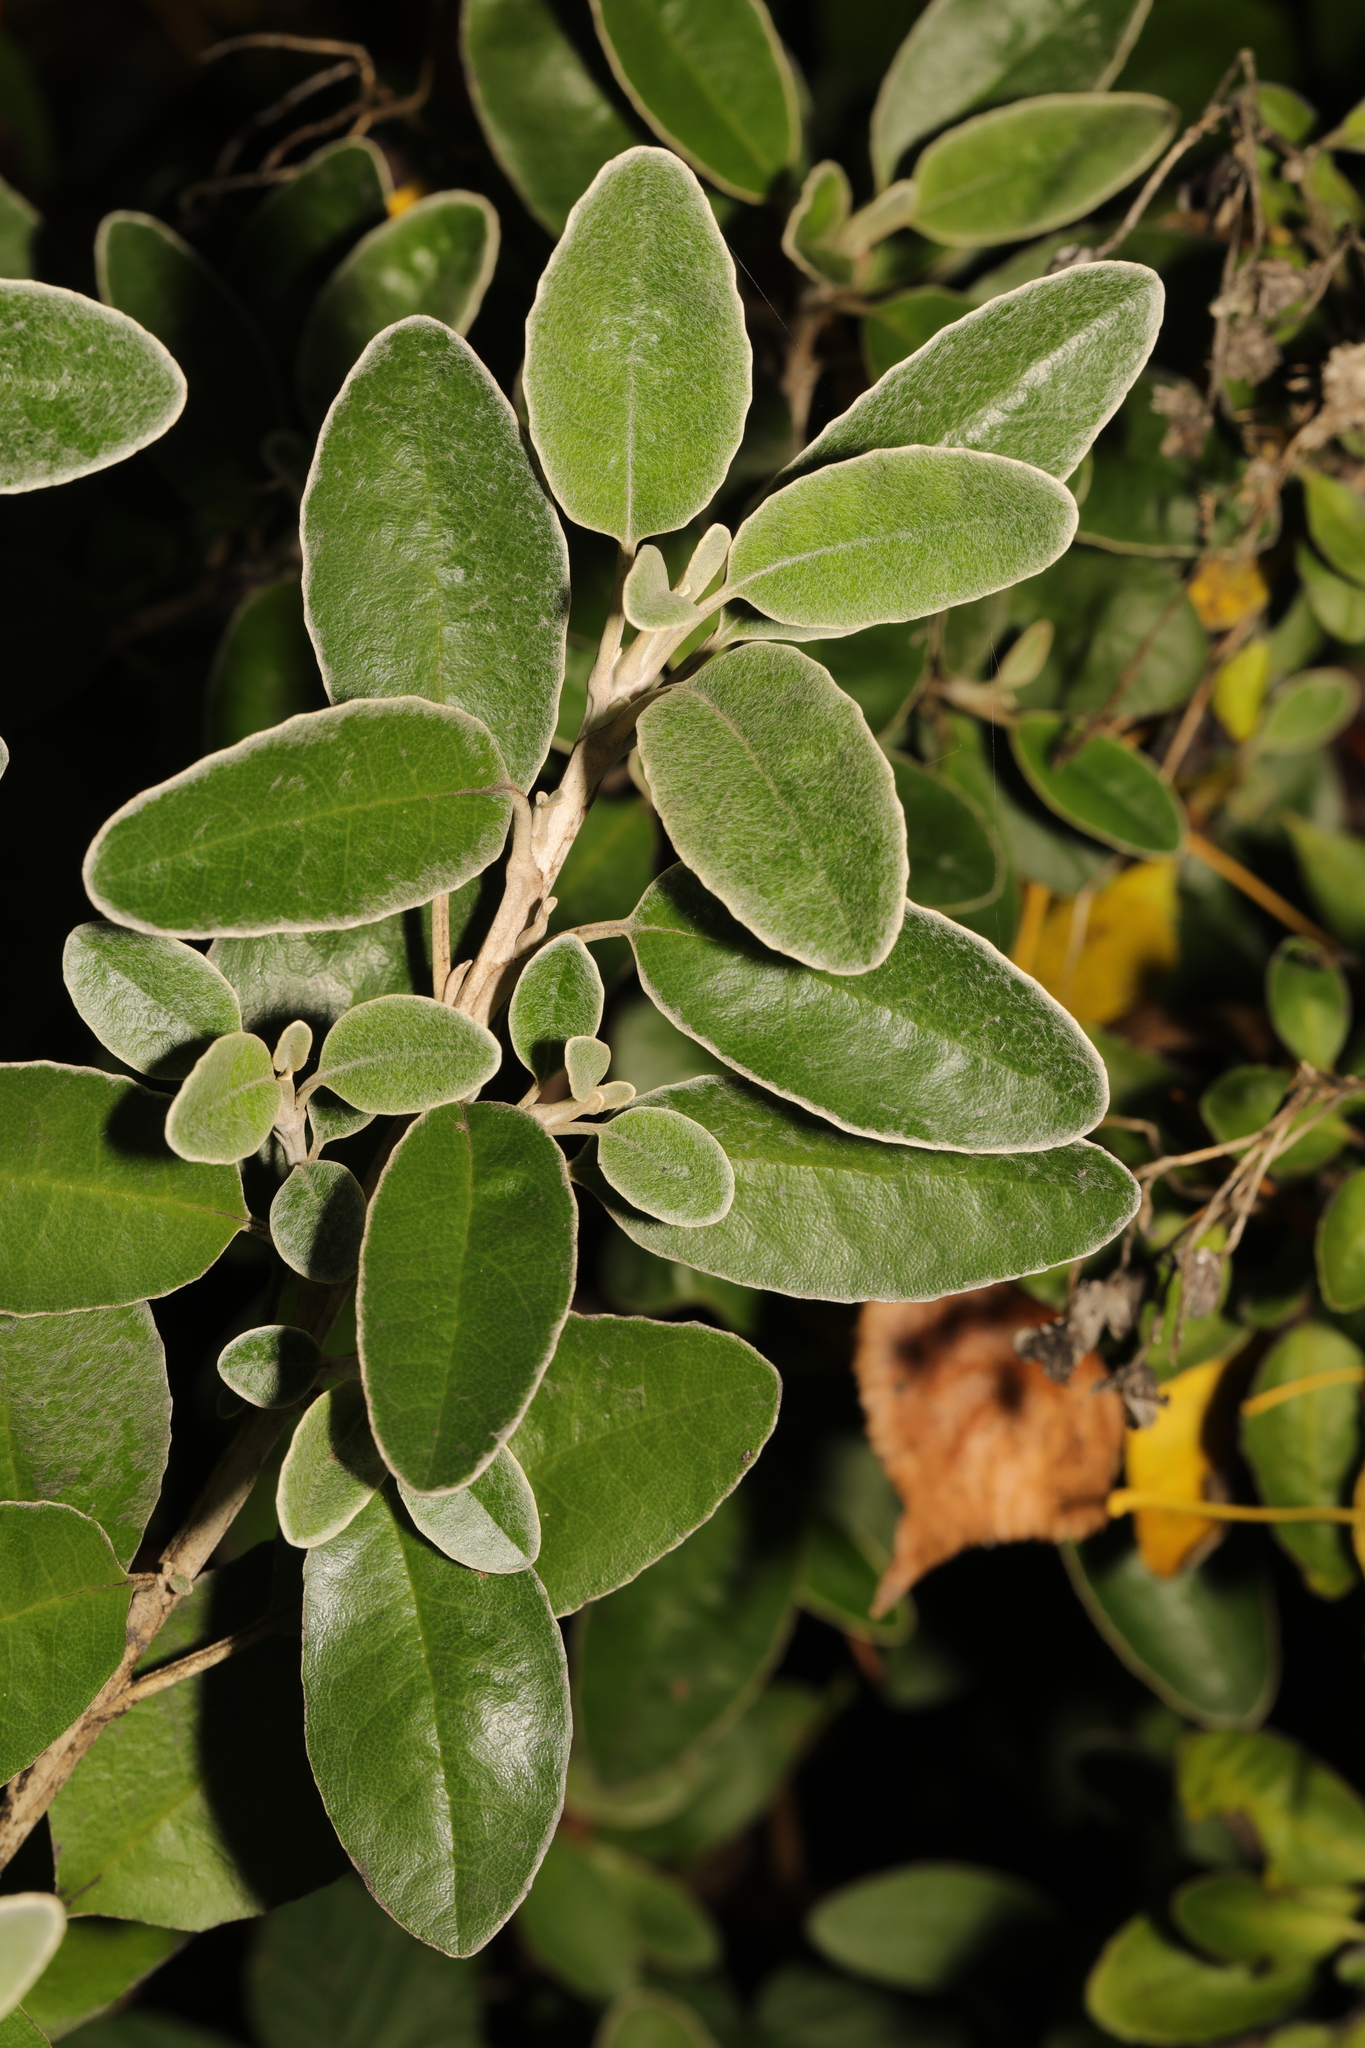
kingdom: Plantae
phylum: Tracheophyta
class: Magnoliopsida
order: Asterales
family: Asteraceae
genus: Brachyglottis
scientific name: Brachyglottis jubar
